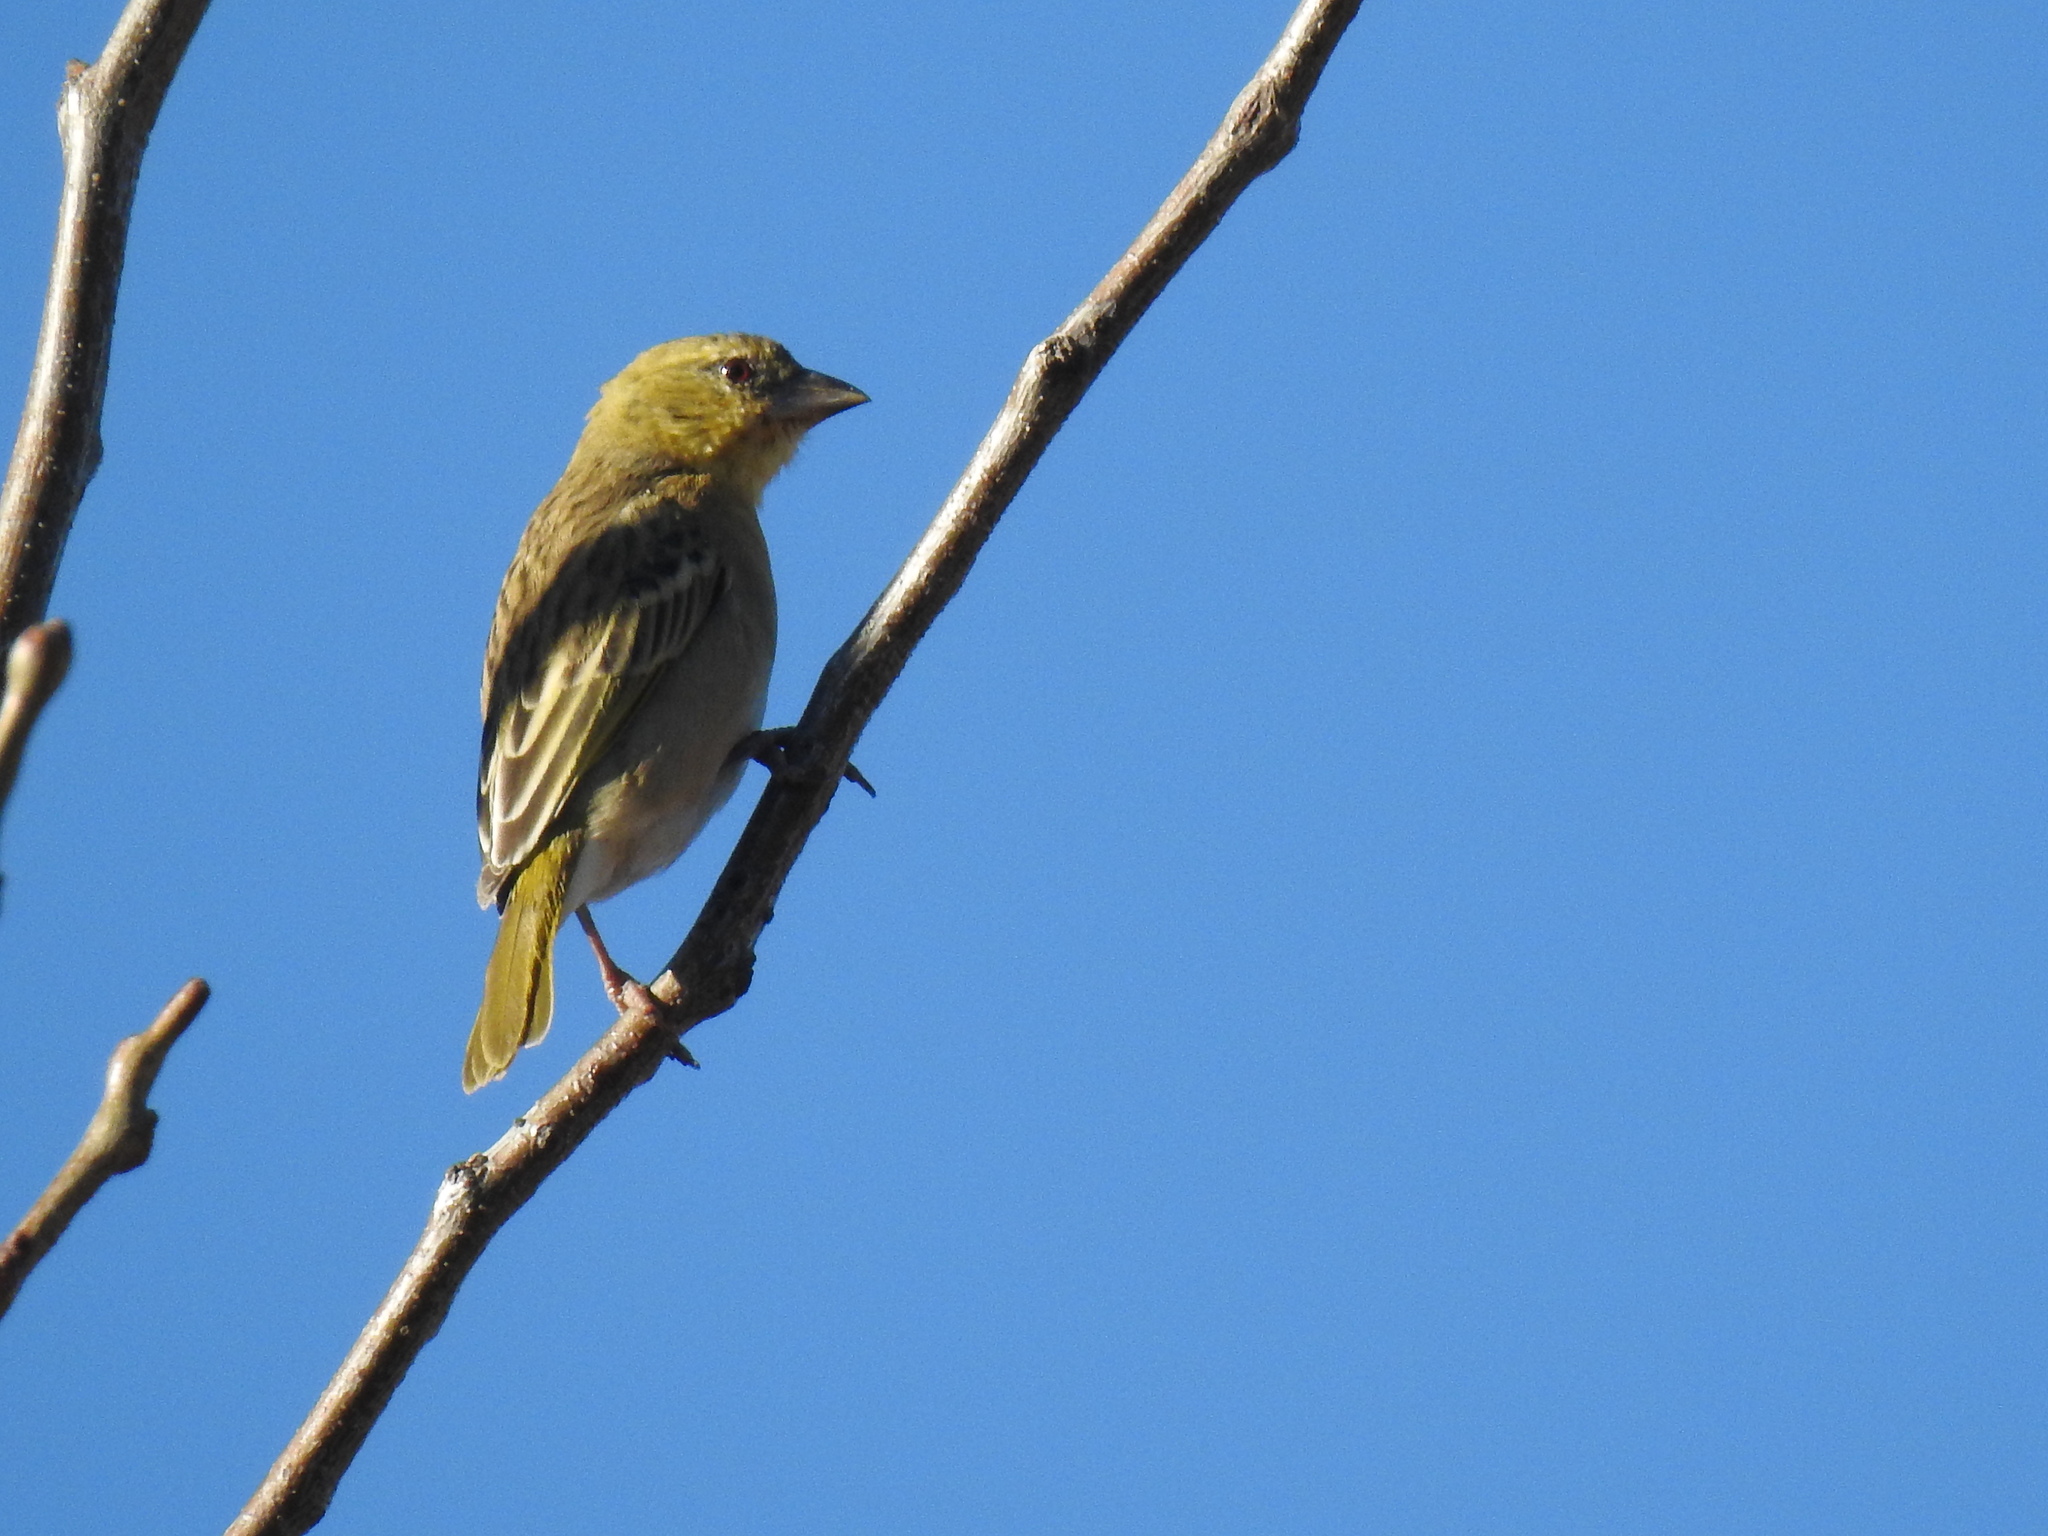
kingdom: Animalia
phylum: Chordata
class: Aves
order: Passeriformes
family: Ploceidae
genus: Ploceus
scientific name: Ploceus velatus
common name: Southern masked weaver
